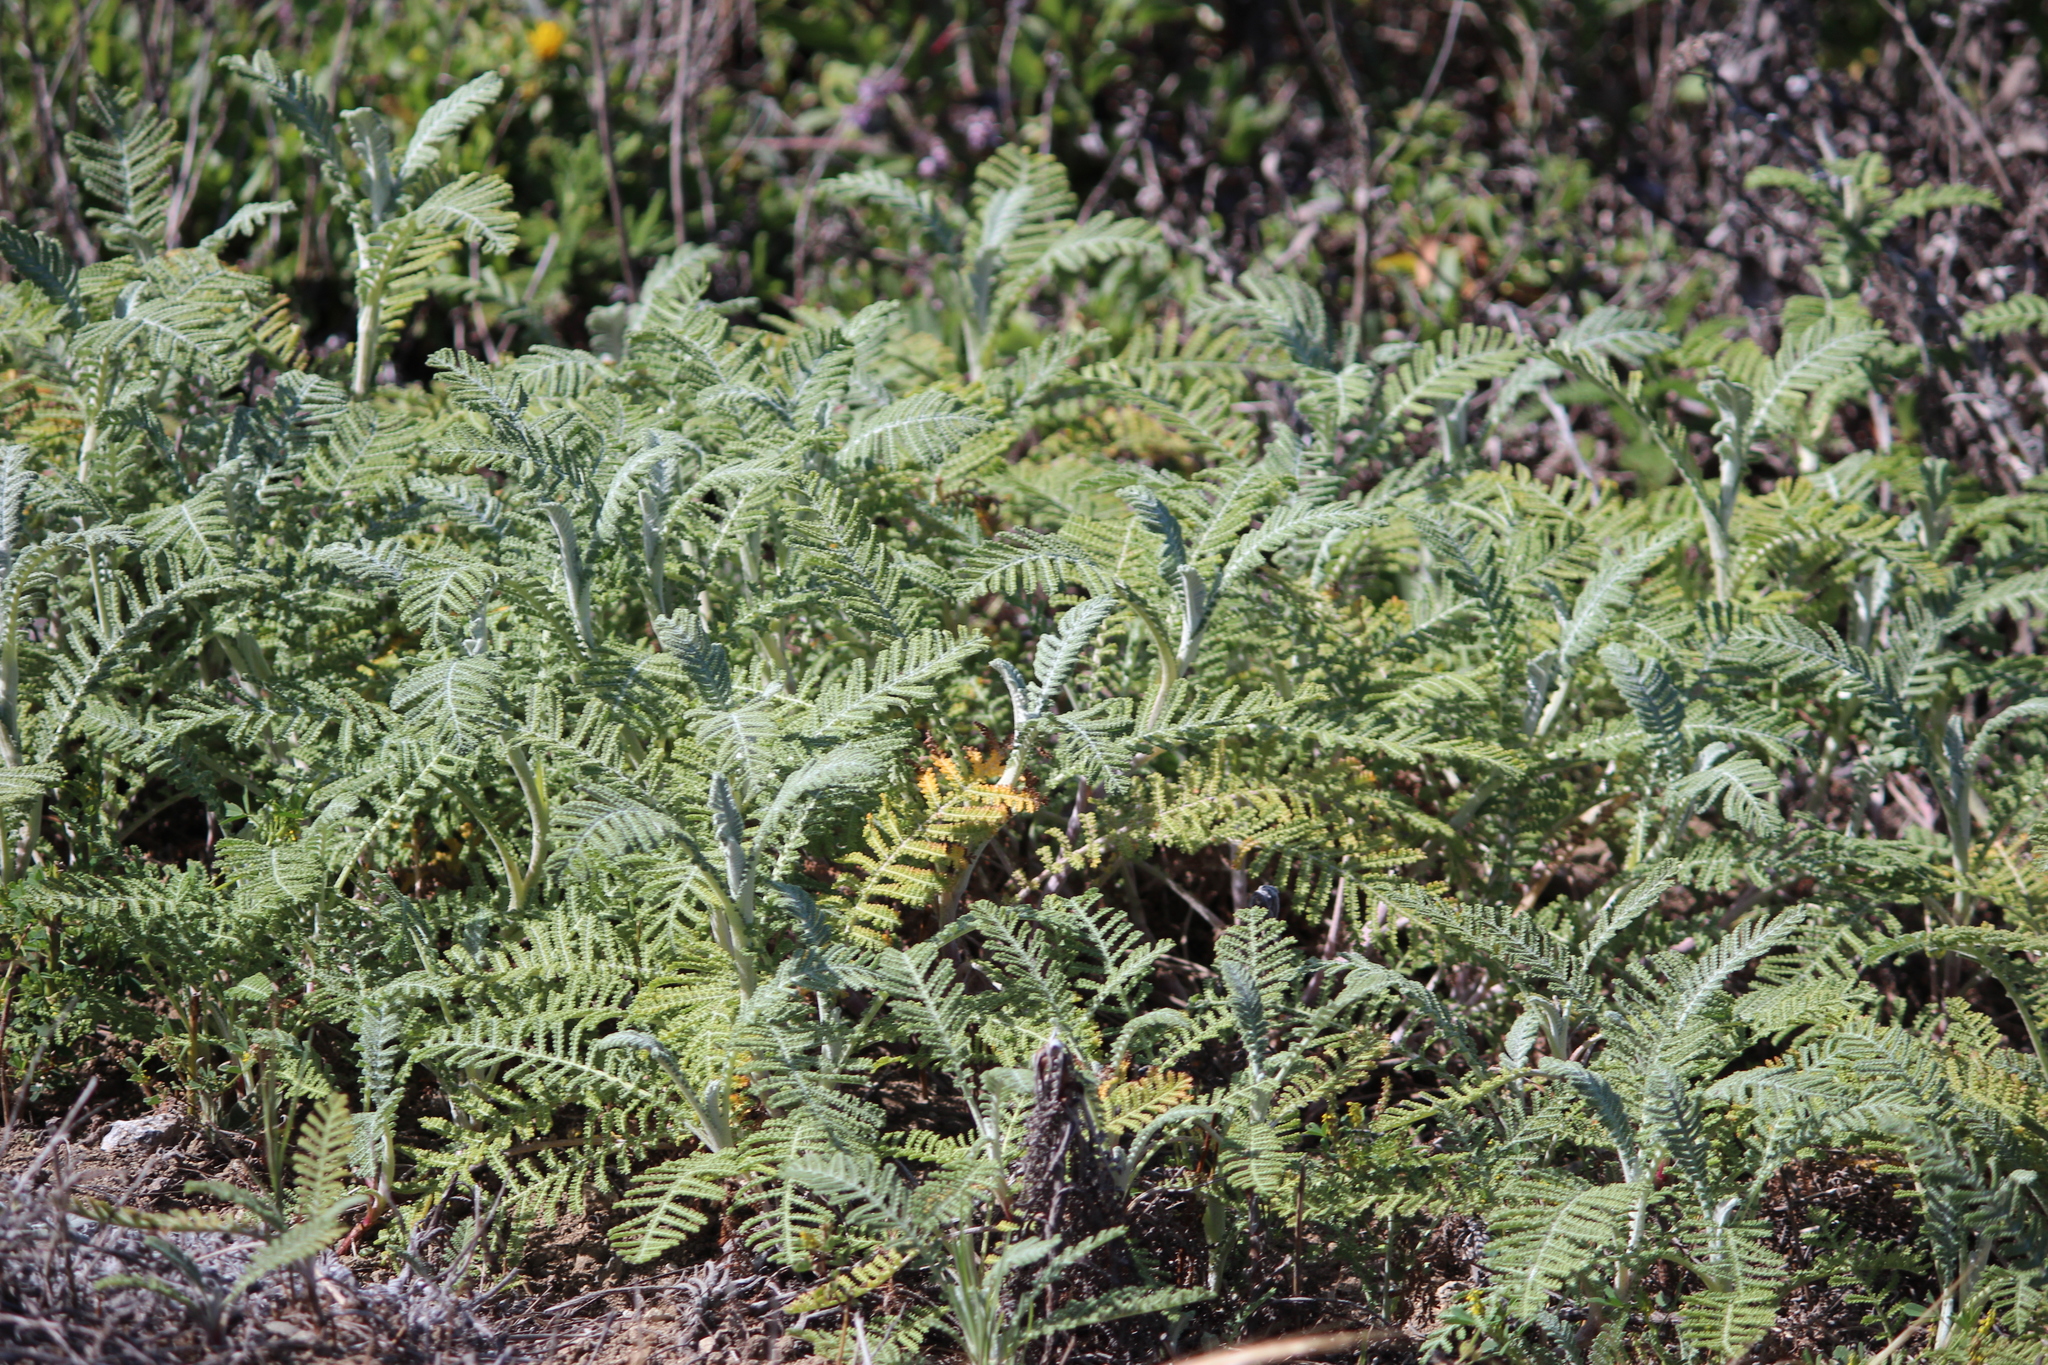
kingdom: Plantae
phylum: Tracheophyta
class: Magnoliopsida
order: Asterales
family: Asteraceae
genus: Tanacetum
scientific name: Tanacetum bipinnatum
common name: Dwarf tansy
